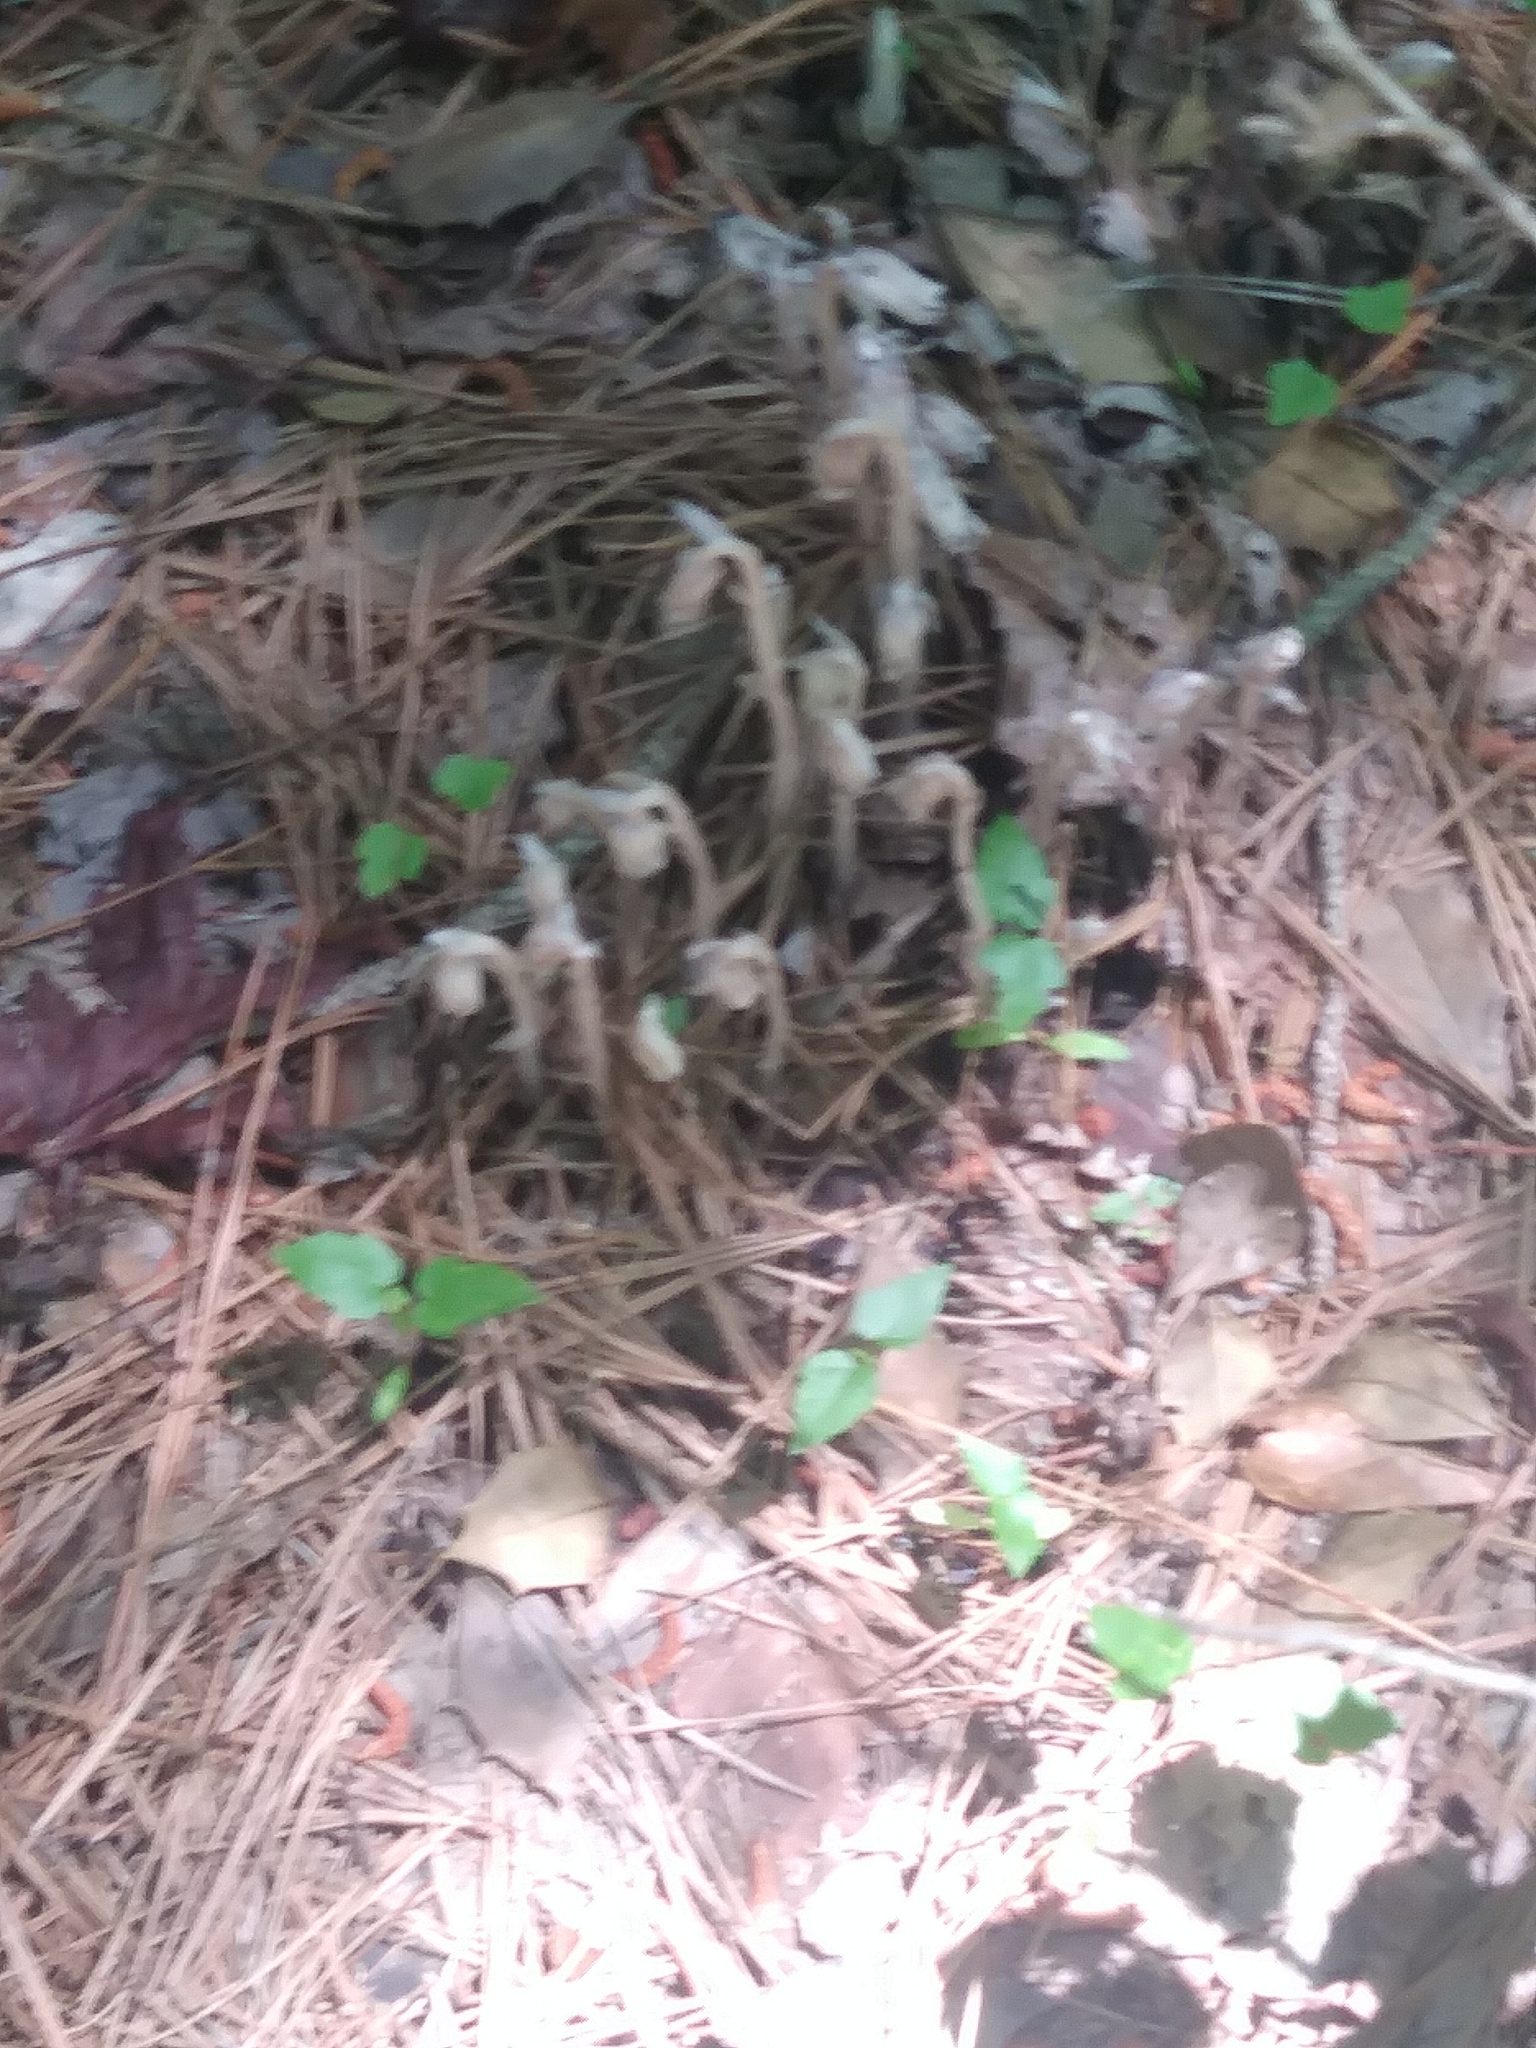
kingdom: Plantae
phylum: Tracheophyta
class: Magnoliopsida
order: Ericales
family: Ericaceae
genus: Monotropa
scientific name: Monotropa uniflora
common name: Convulsion root
